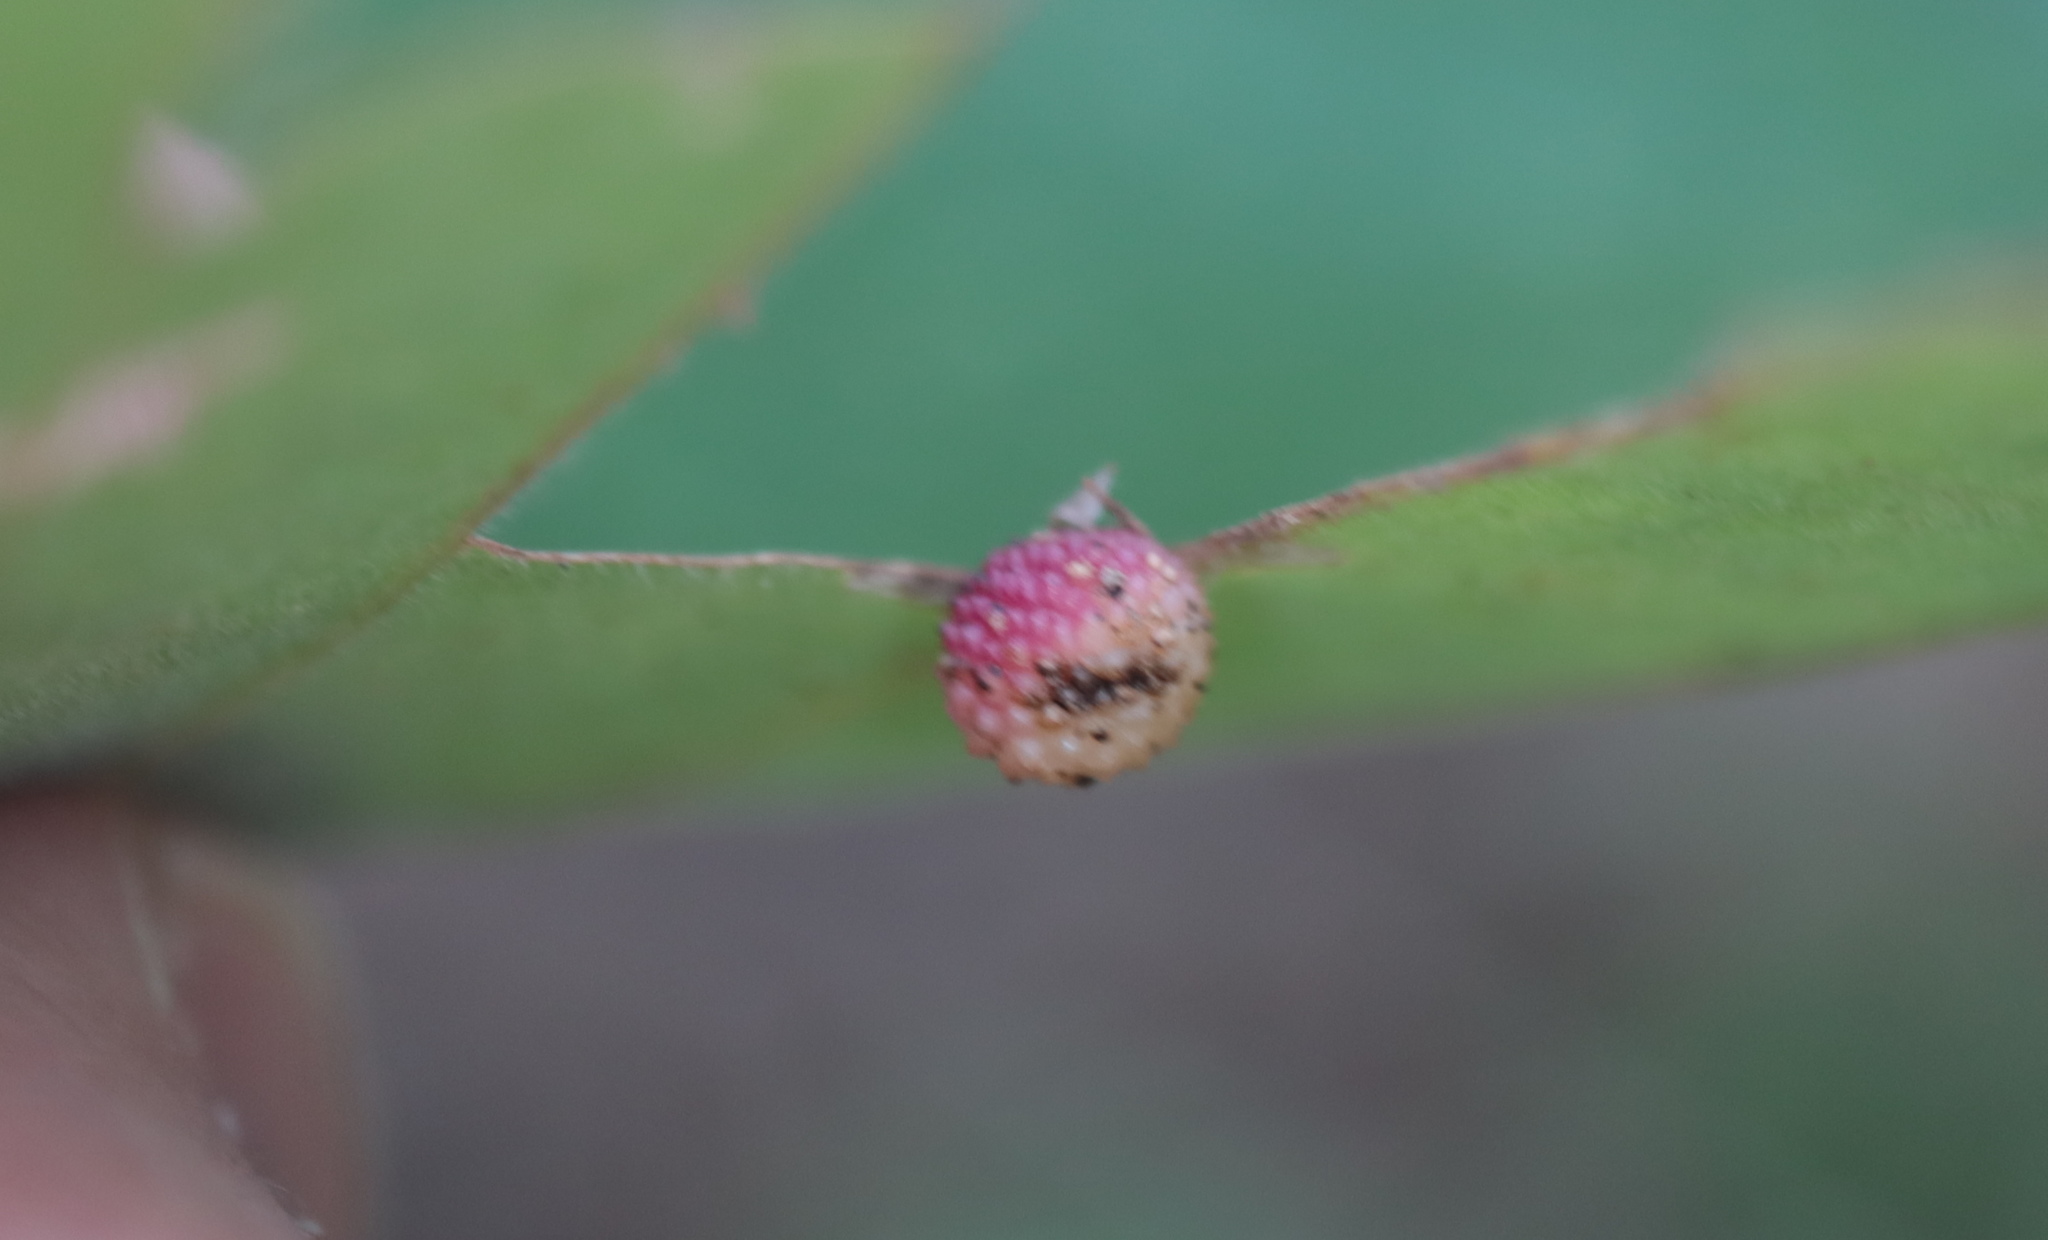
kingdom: Animalia
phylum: Arthropoda
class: Insecta
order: Hymenoptera
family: Cynipidae
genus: Acraspis
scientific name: Acraspis quercushirta
